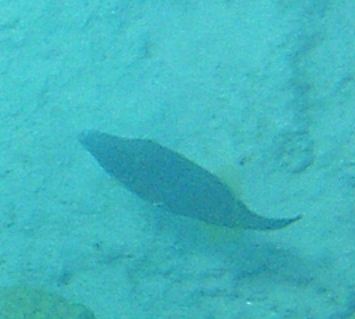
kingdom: Animalia
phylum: Chordata
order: Tetraodontiformes
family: Monacanthidae
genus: Cantherhines
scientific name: Cantherhines pullus
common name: Orangespotted filefish
